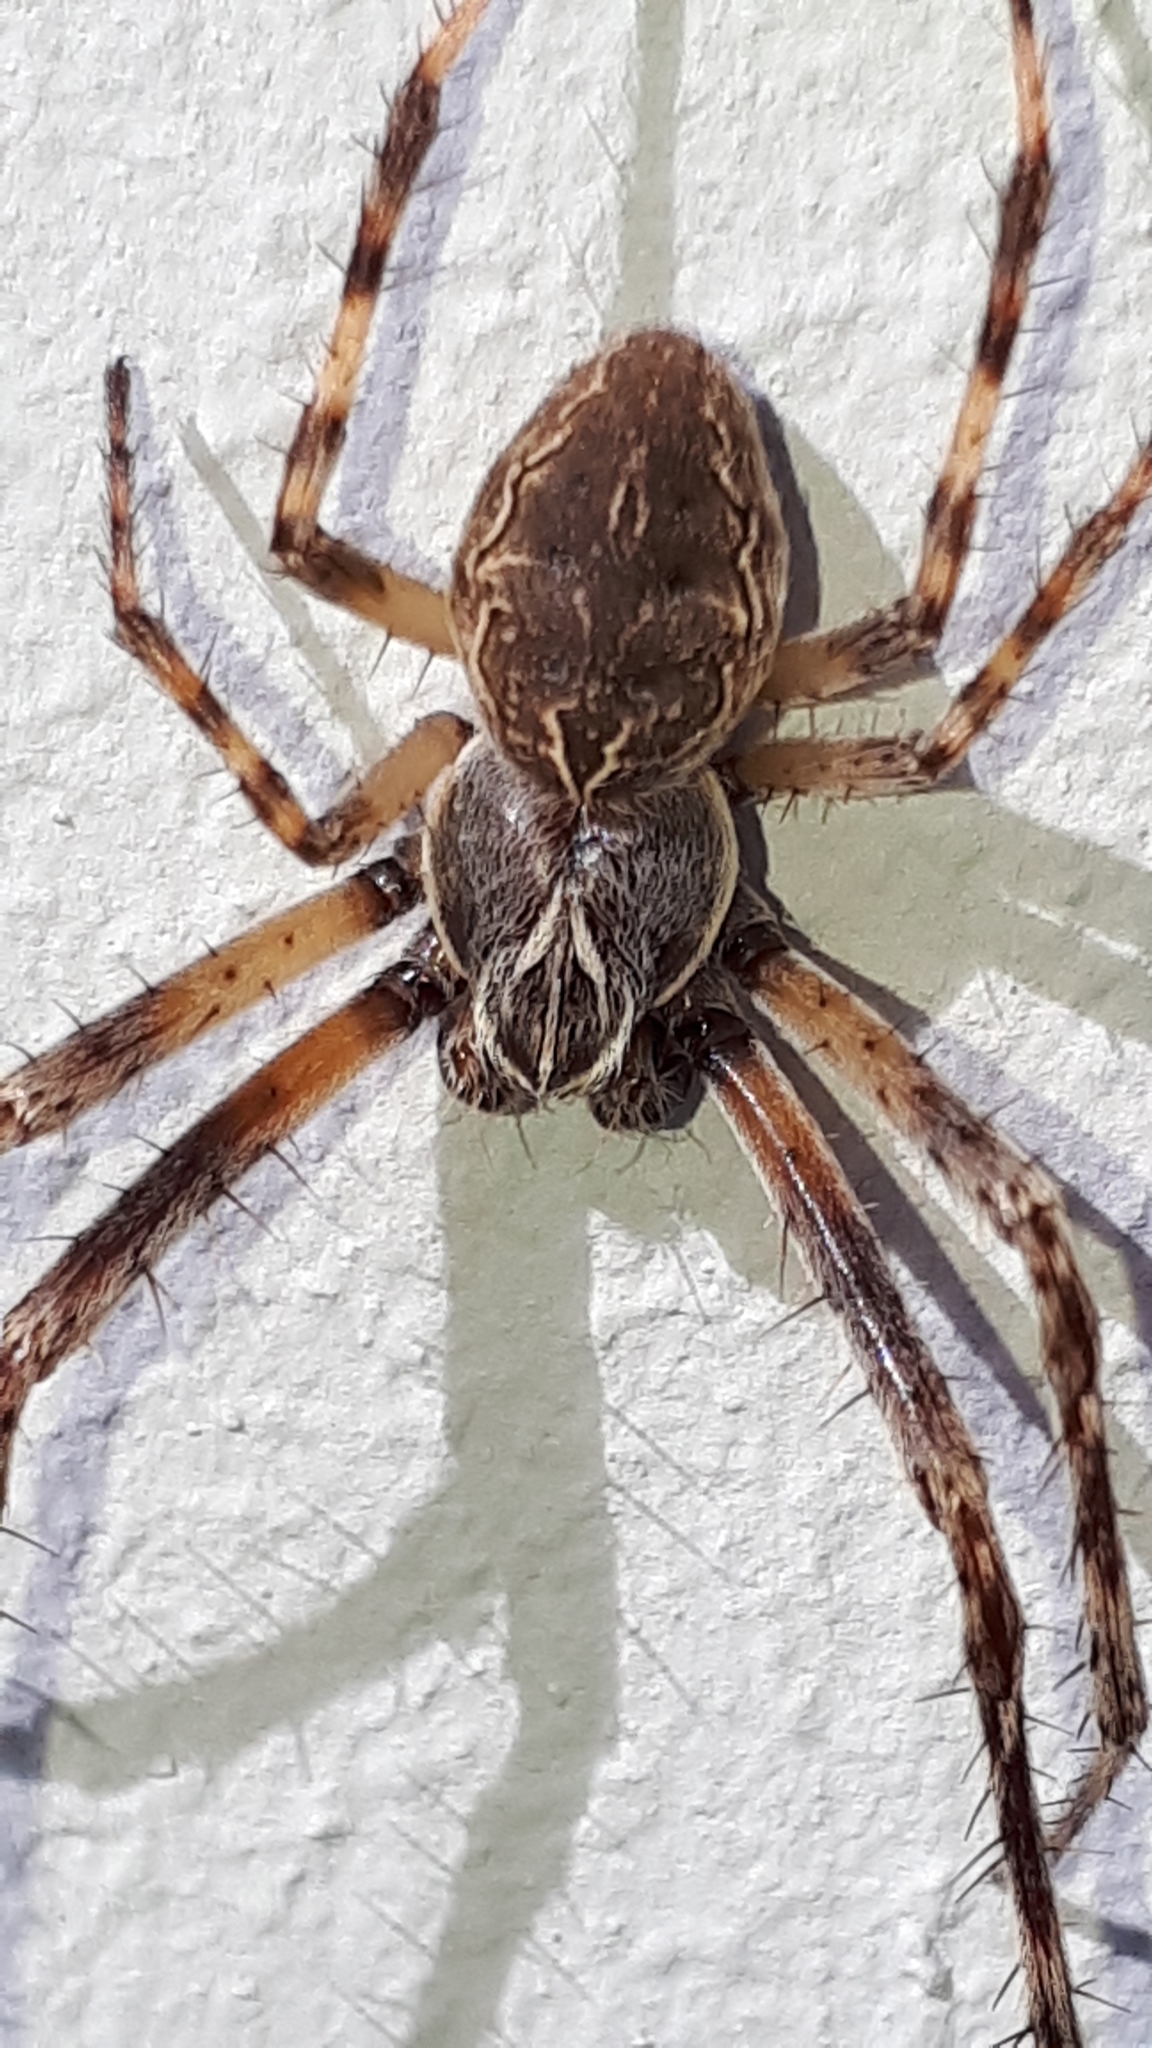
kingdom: Animalia
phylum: Arthropoda
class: Arachnida
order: Araneae
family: Araneidae
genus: Larinioides
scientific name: Larinioides sclopetarius
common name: Bridge orbweaver
